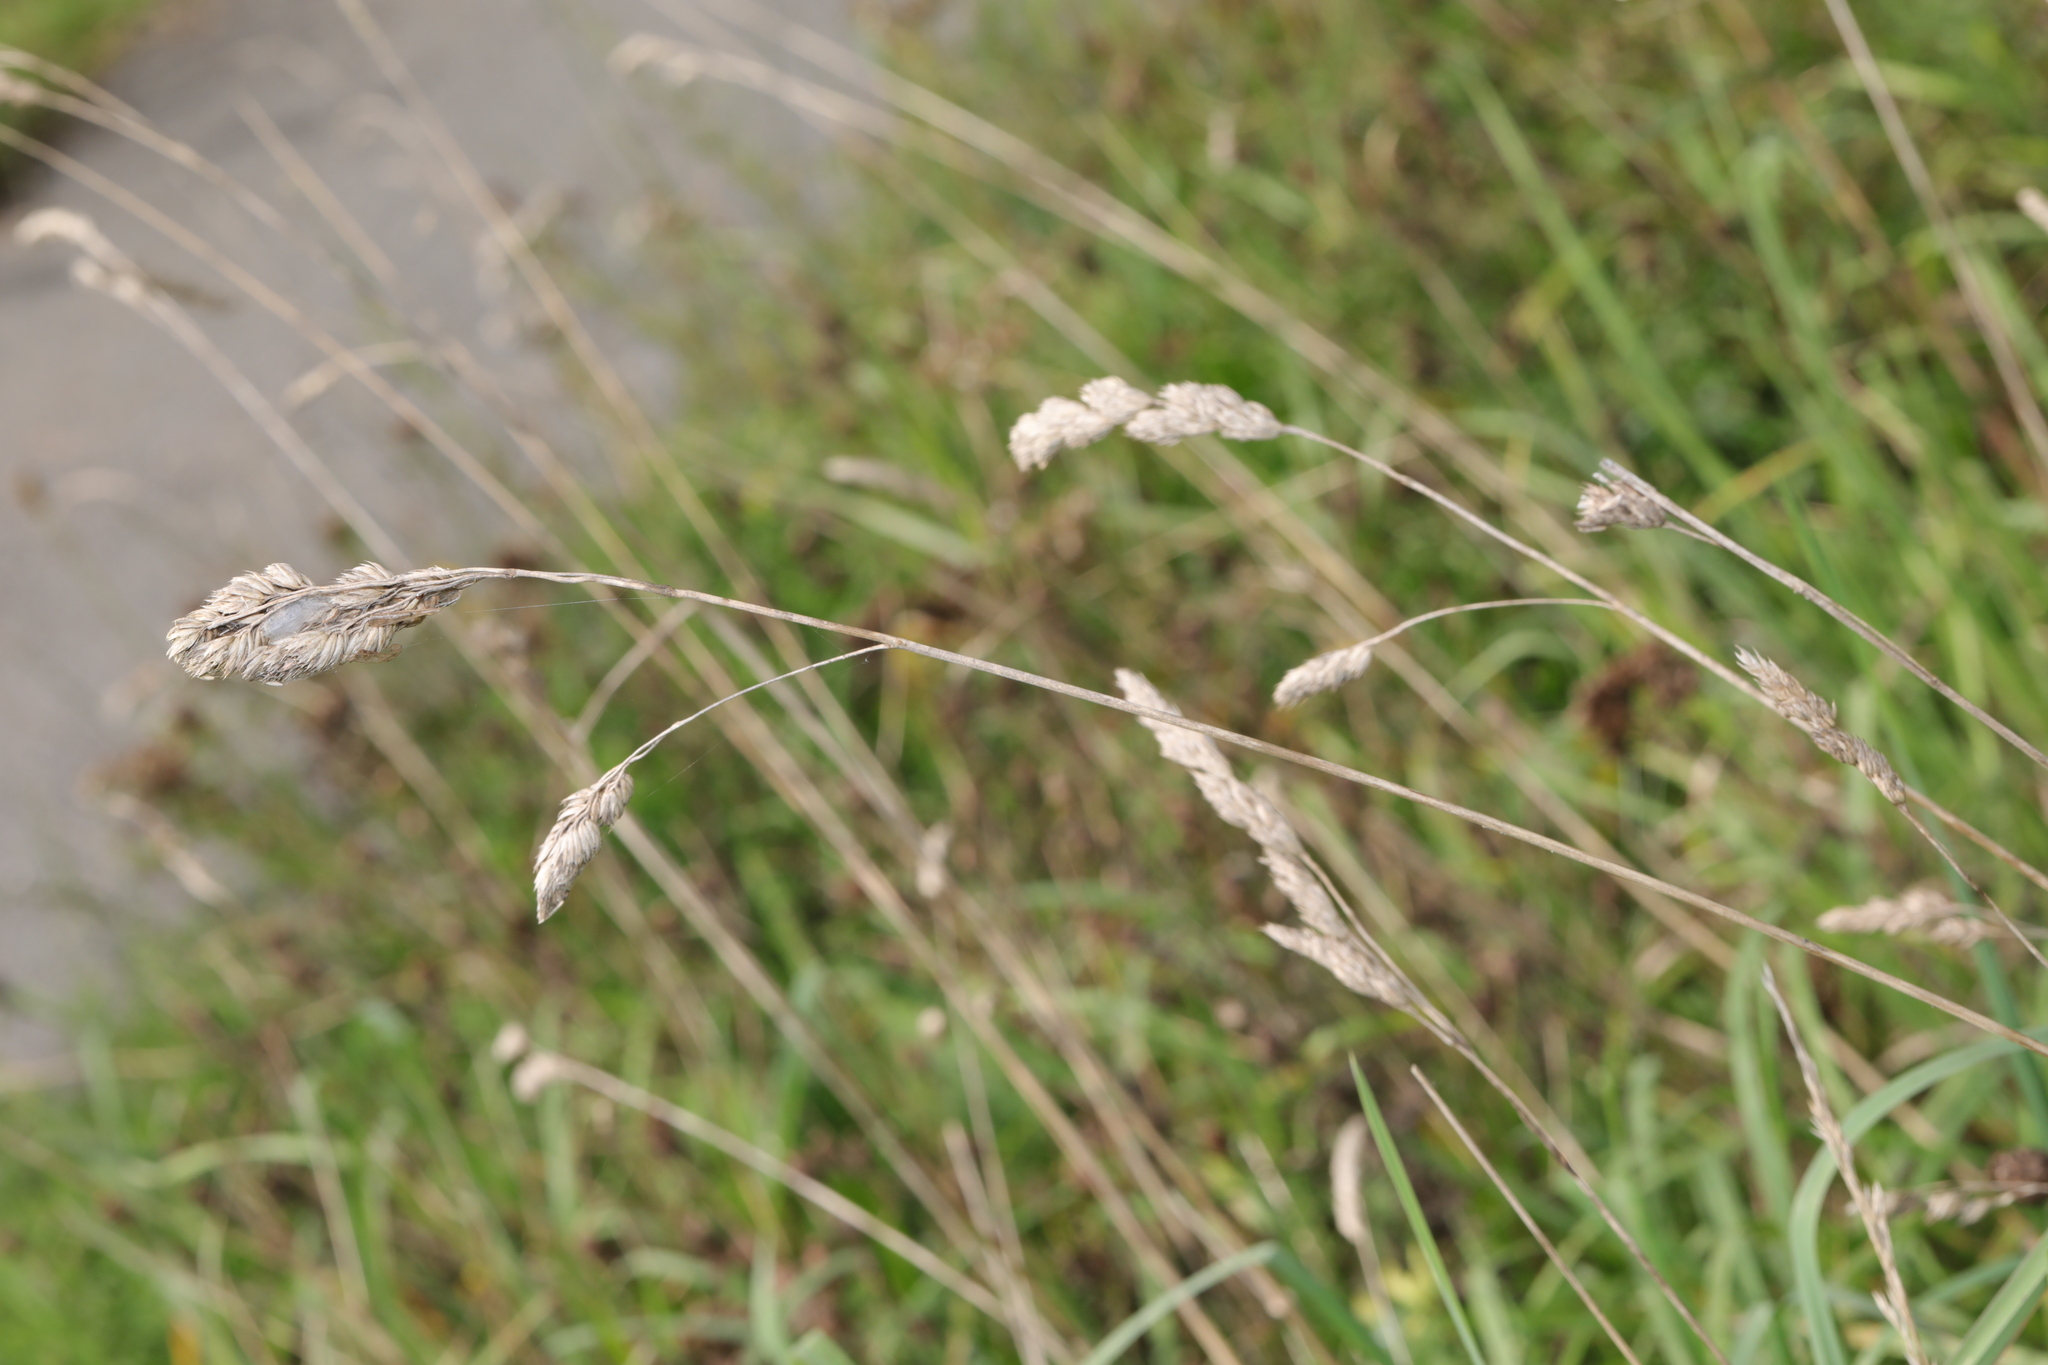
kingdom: Plantae
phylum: Tracheophyta
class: Liliopsida
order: Poales
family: Poaceae
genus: Dactylis
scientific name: Dactylis glomerata
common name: Orchardgrass
